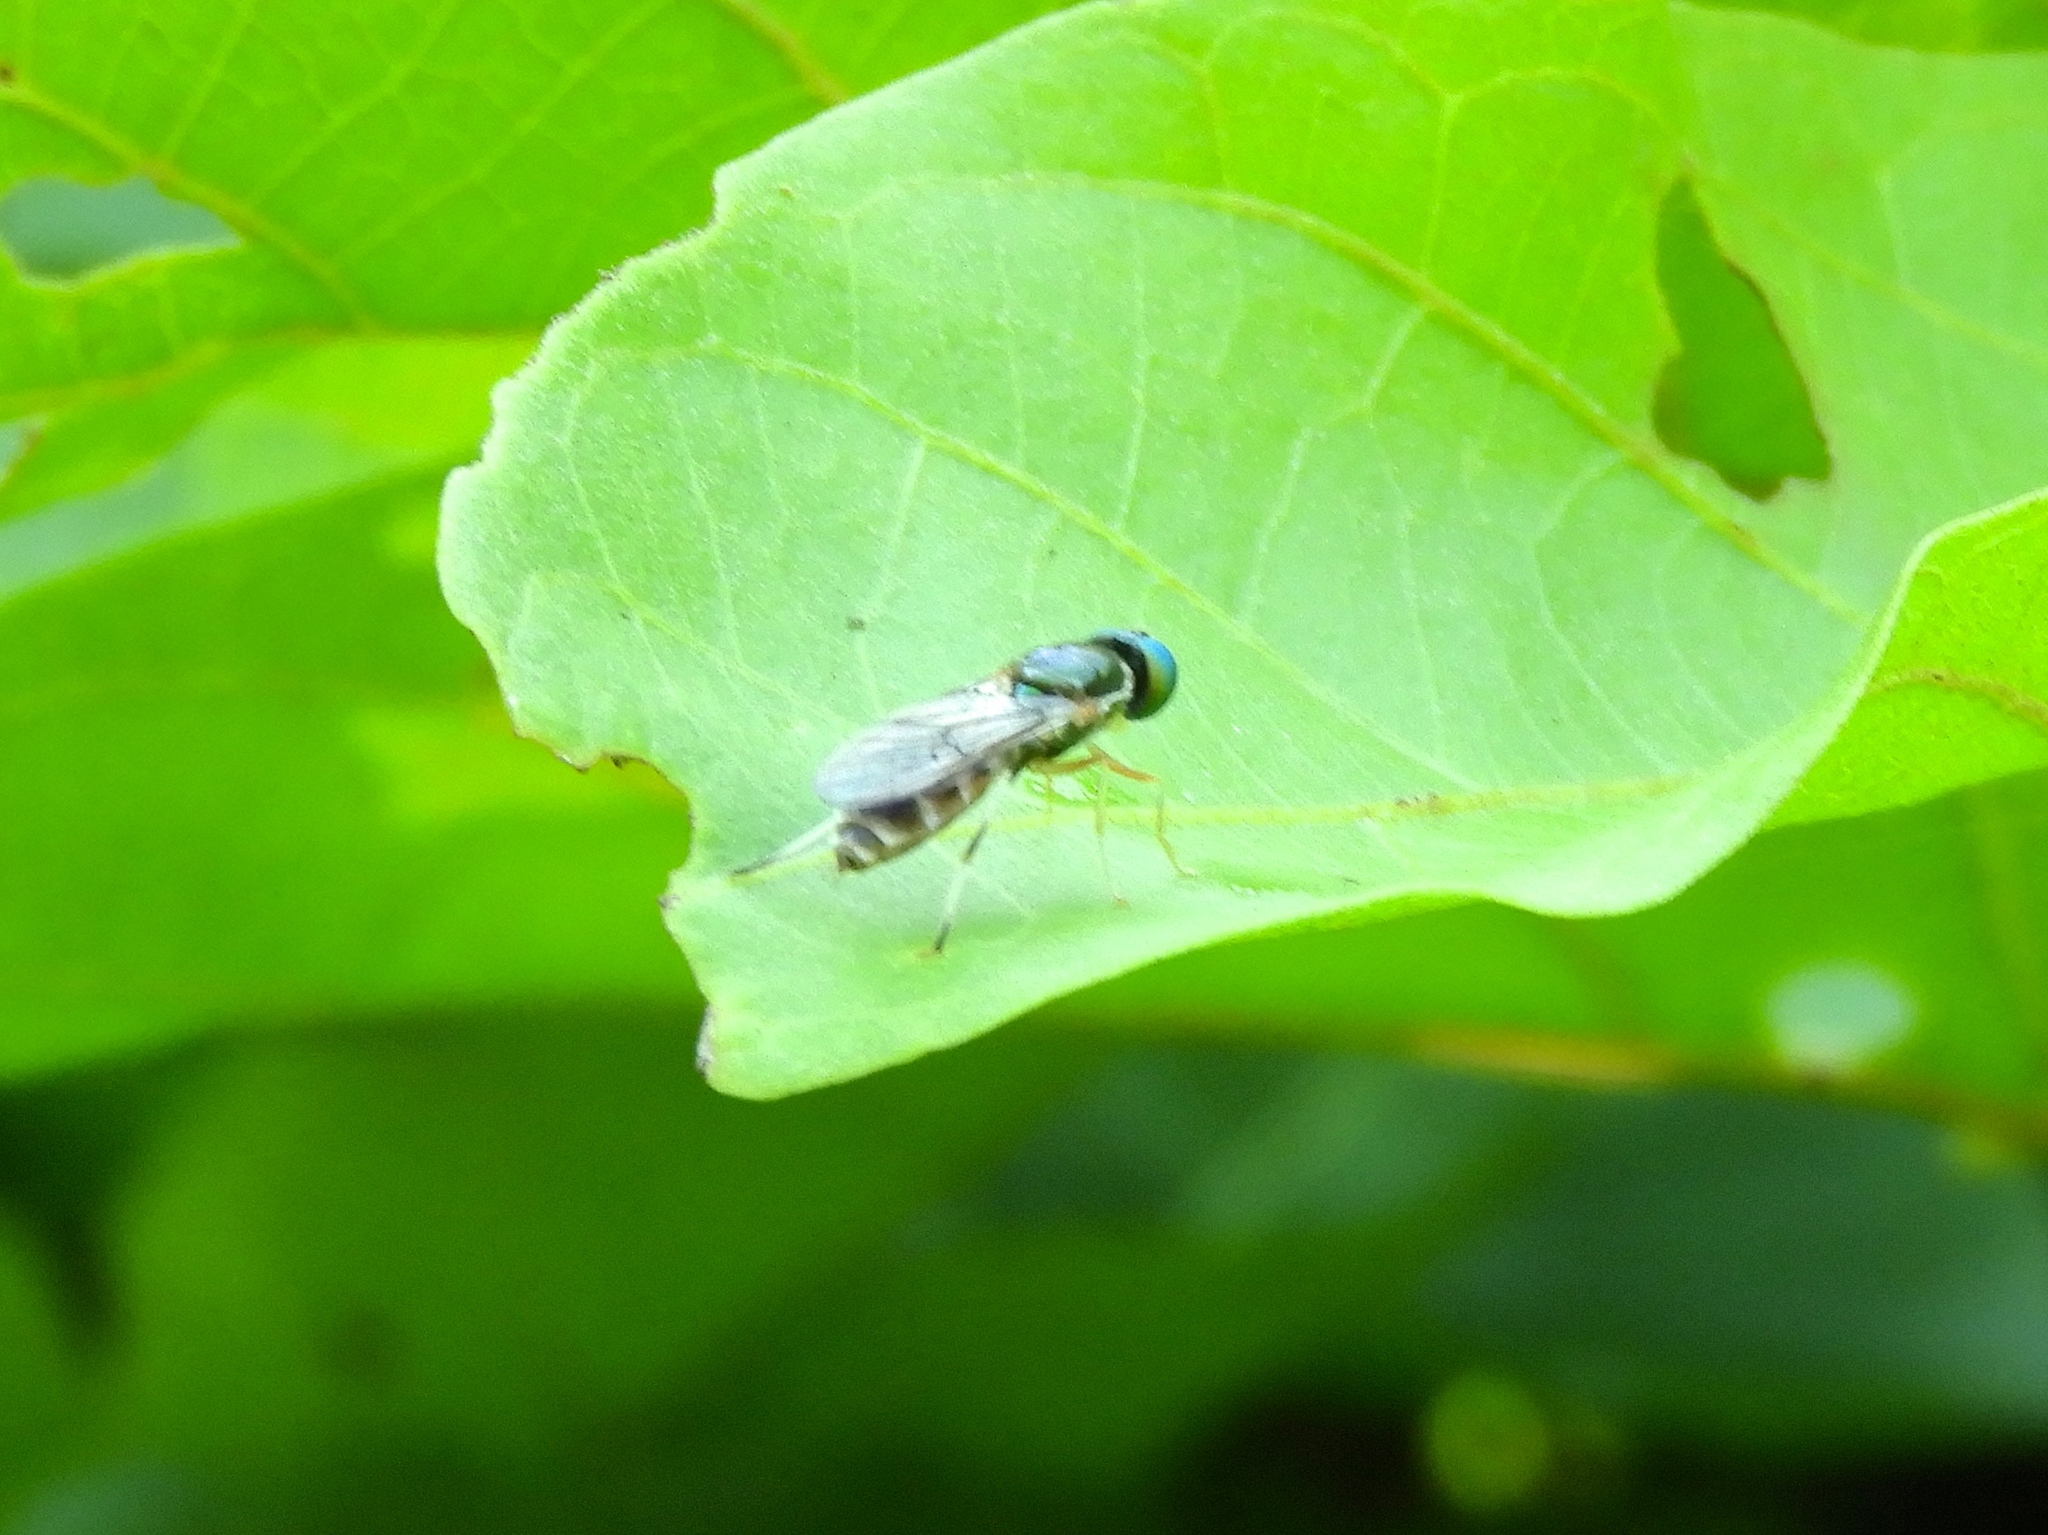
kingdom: Animalia
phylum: Arthropoda
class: Insecta
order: Diptera
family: Stratiomyidae
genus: Sargus
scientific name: Sargus
